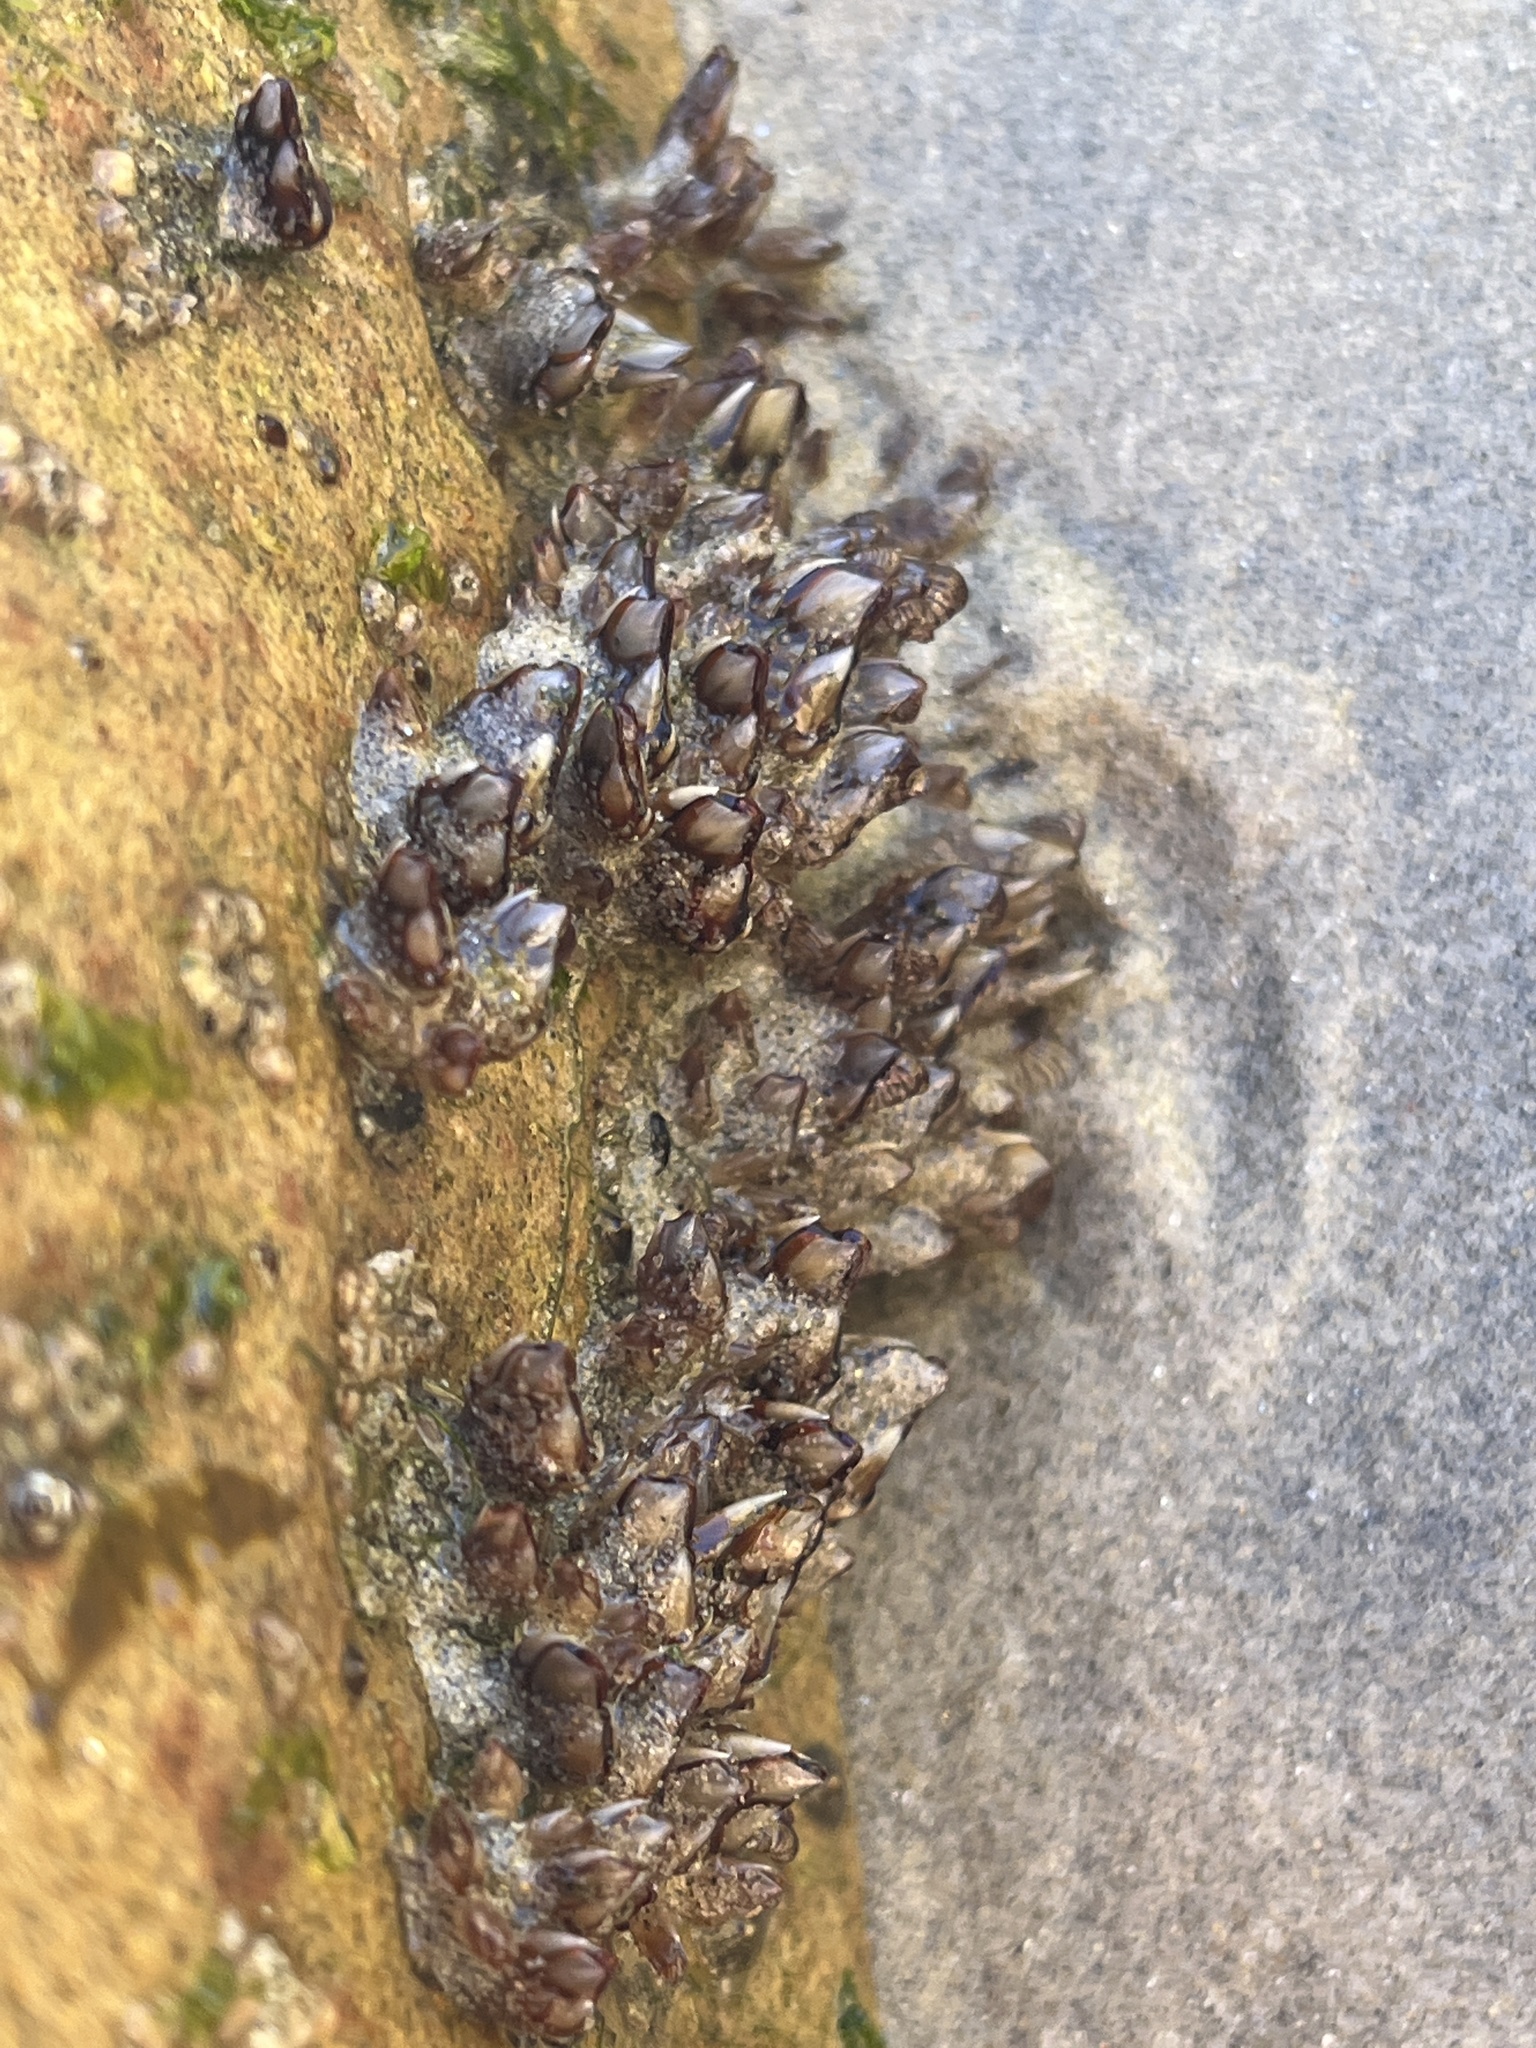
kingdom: Animalia
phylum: Arthropoda
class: Maxillopoda
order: Pedunculata
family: Pollicipedidae
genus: Pollicipes
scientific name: Pollicipes polymerus
